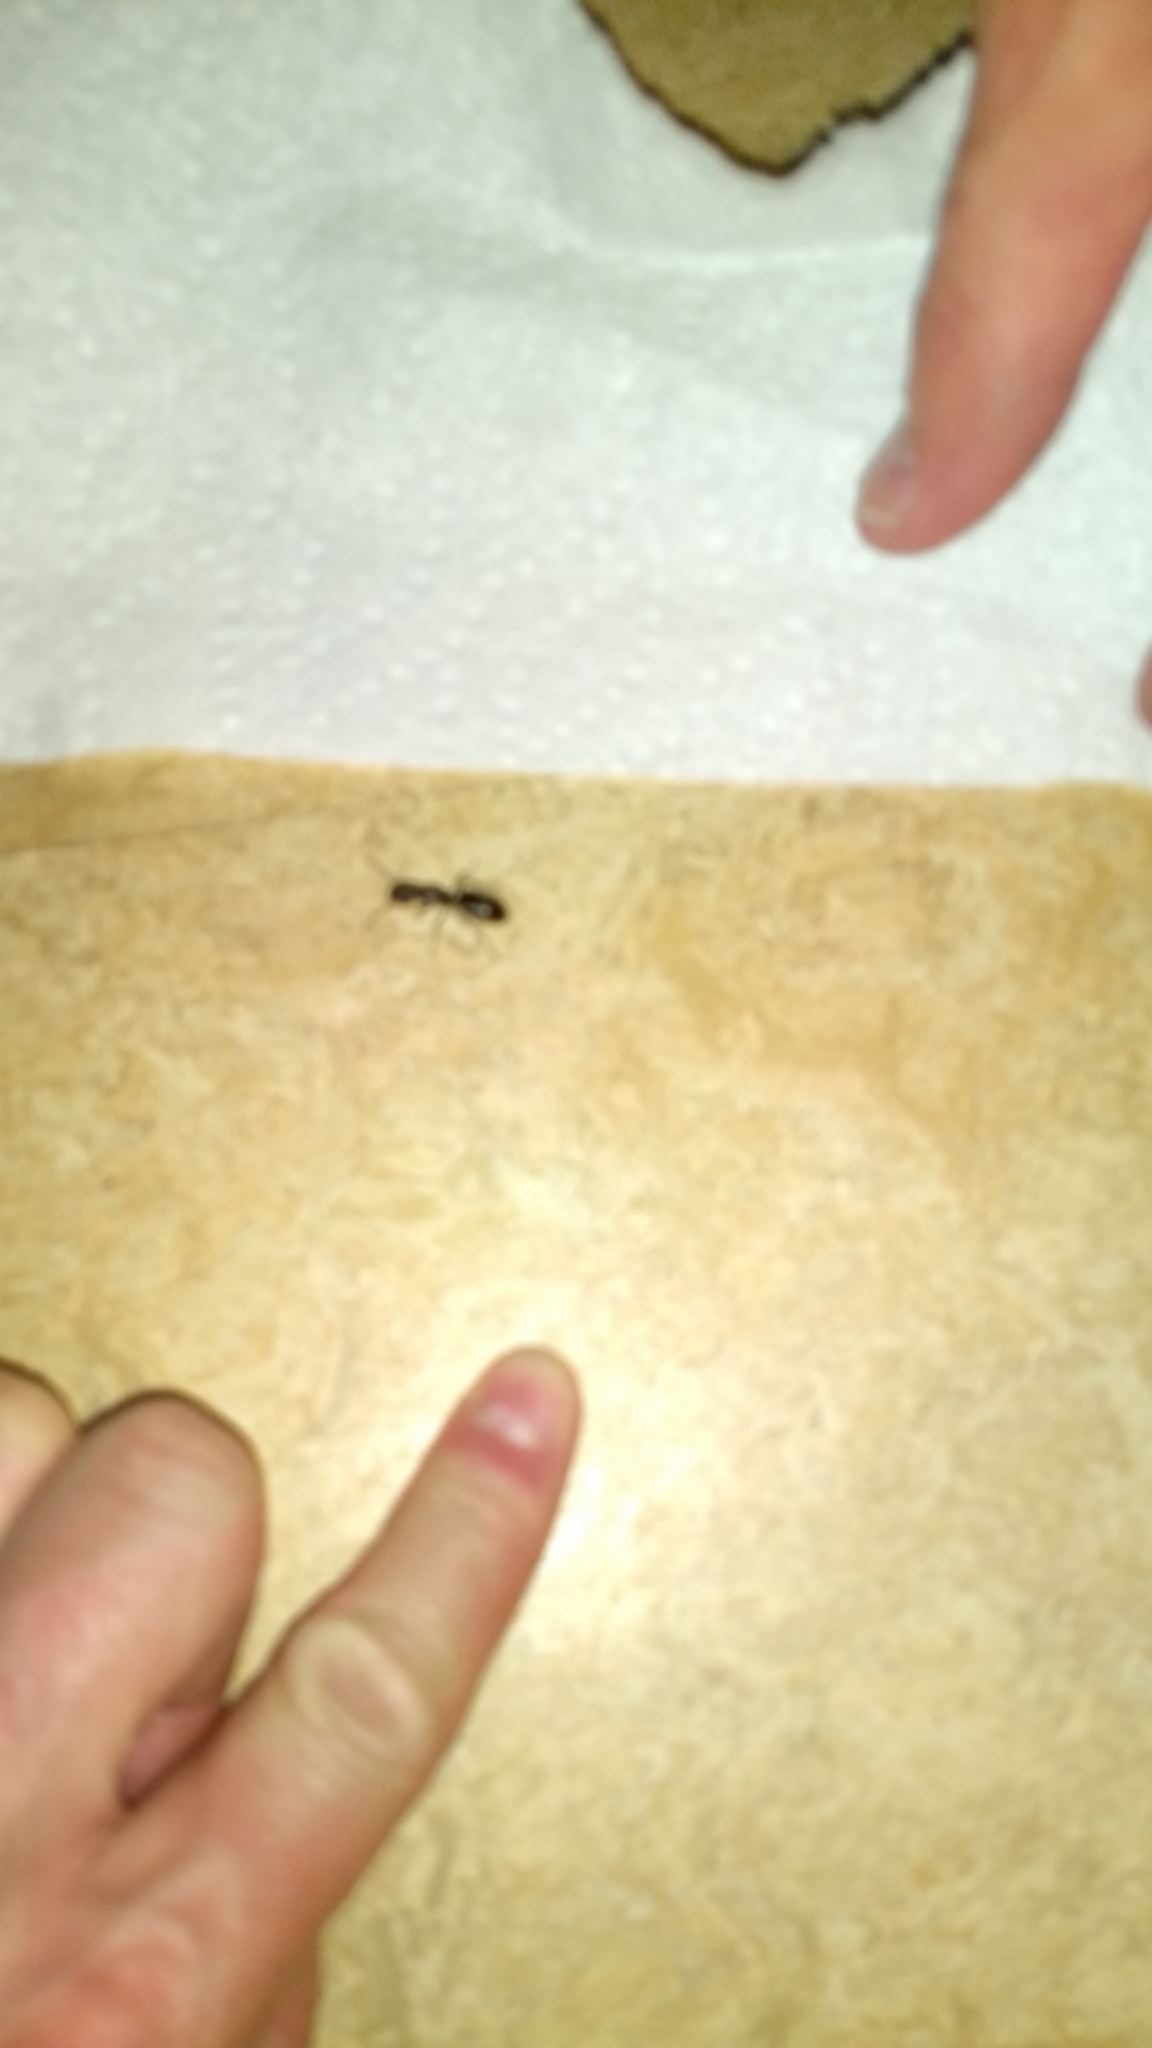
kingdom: Animalia
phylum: Arthropoda
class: Insecta
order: Hymenoptera
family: Formicidae
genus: Camponotus
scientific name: Camponotus pennsylvanicus
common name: Black carpenter ant
